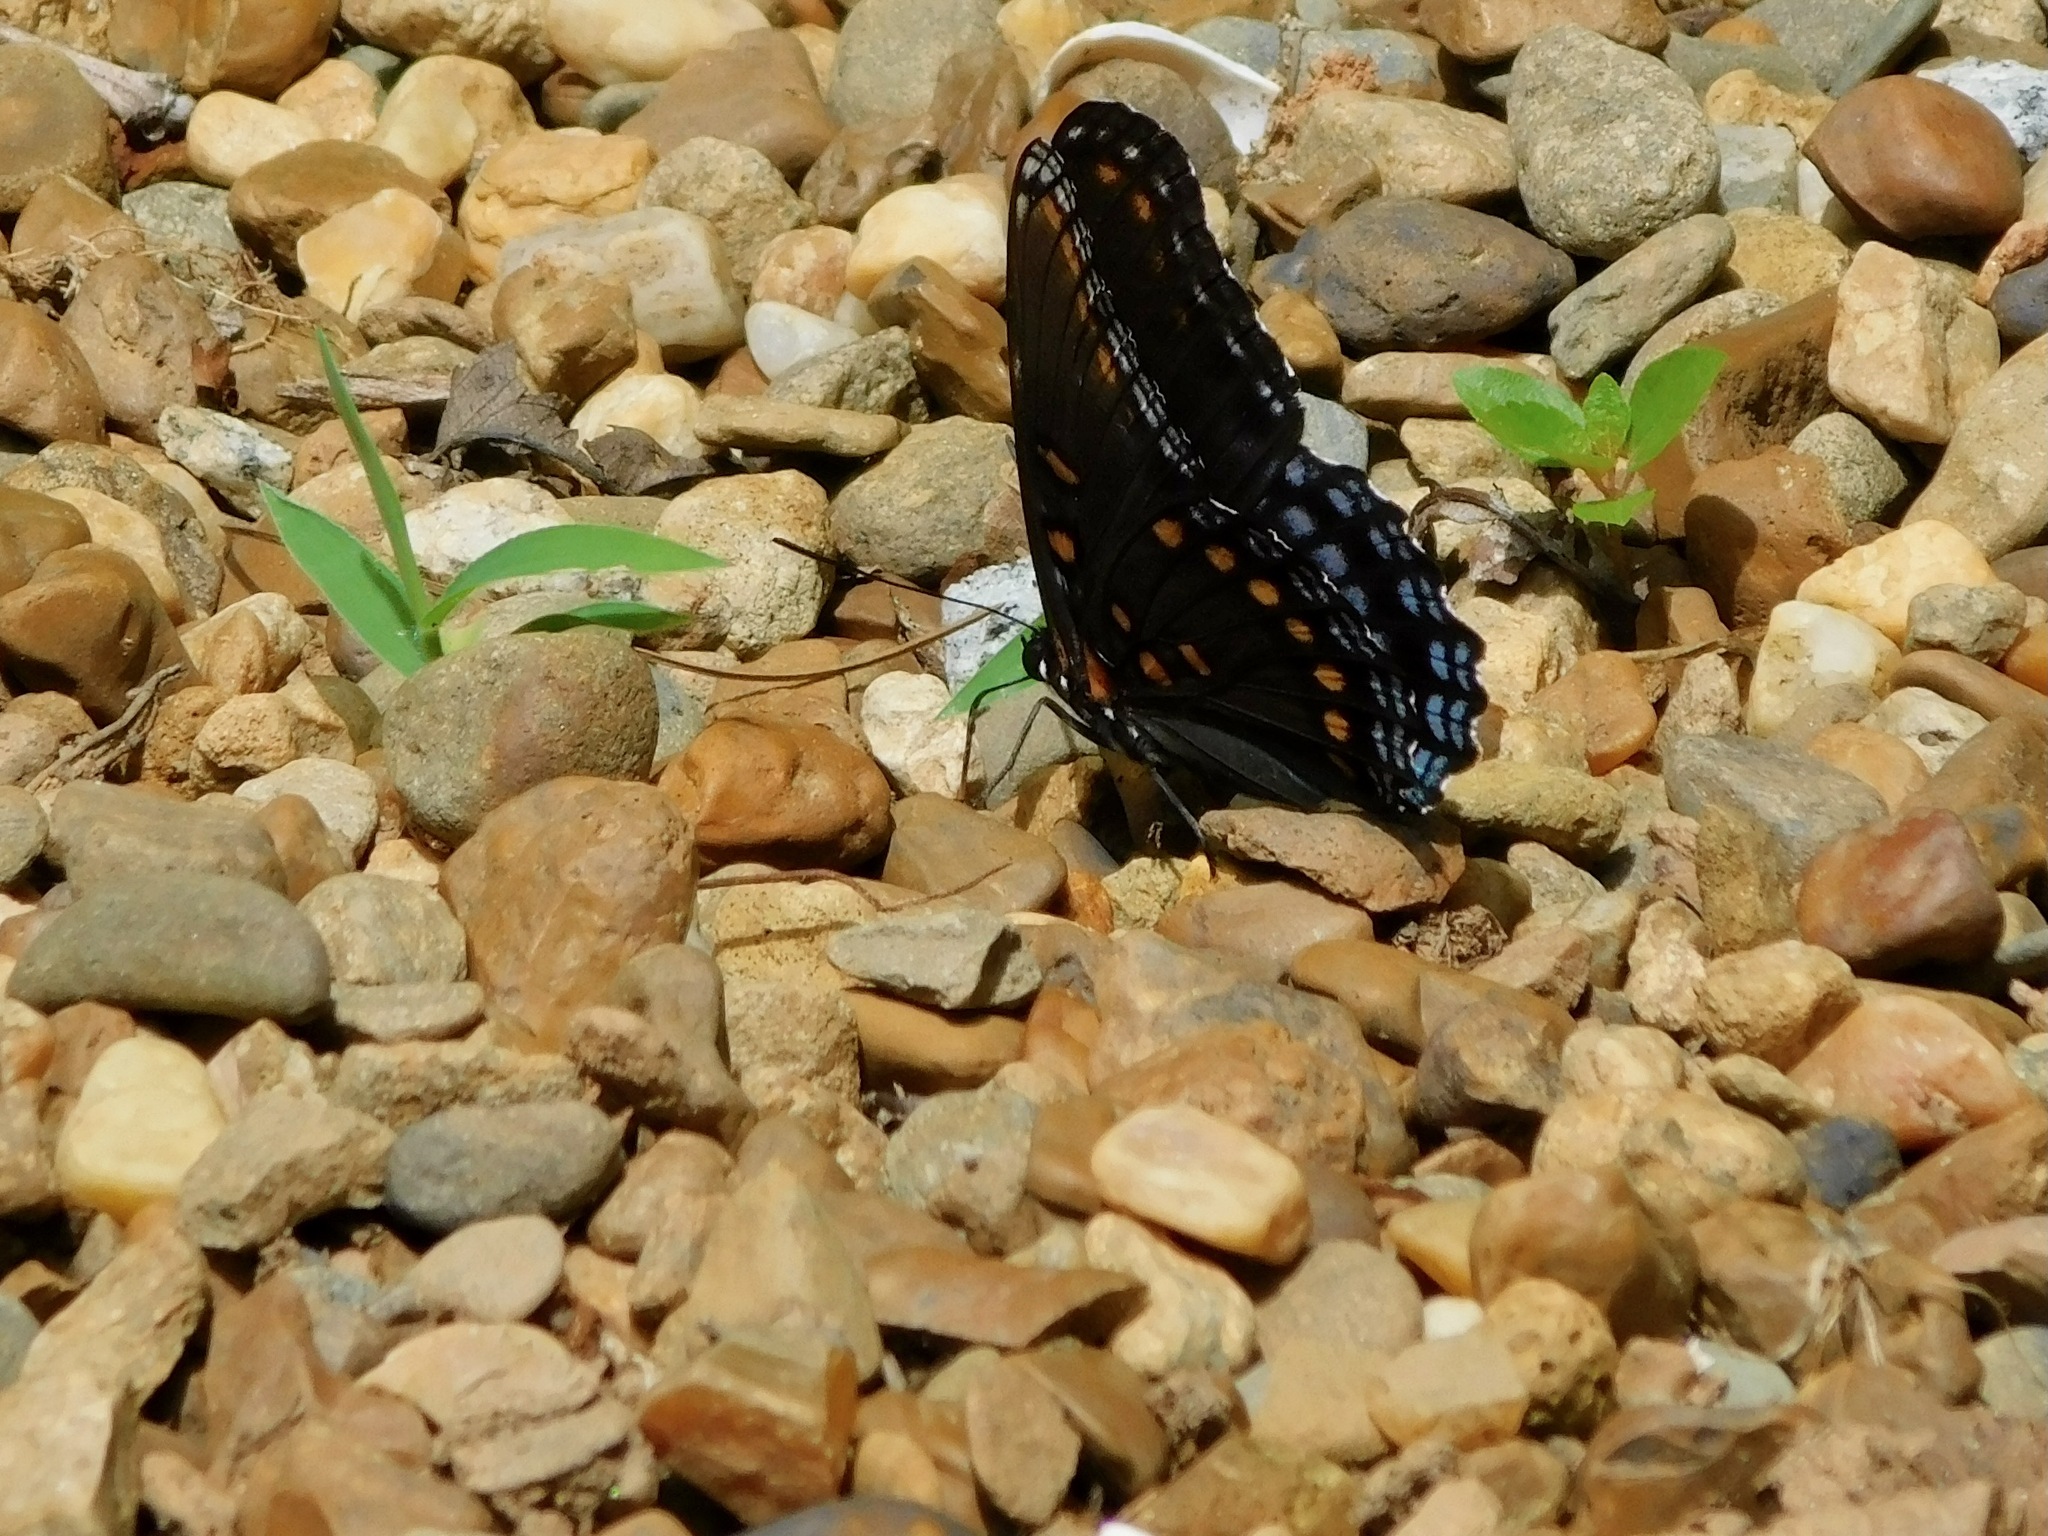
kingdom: Animalia
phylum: Arthropoda
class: Insecta
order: Lepidoptera
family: Nymphalidae
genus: Limenitis
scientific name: Limenitis arthemis
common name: Red-spotted admiral
